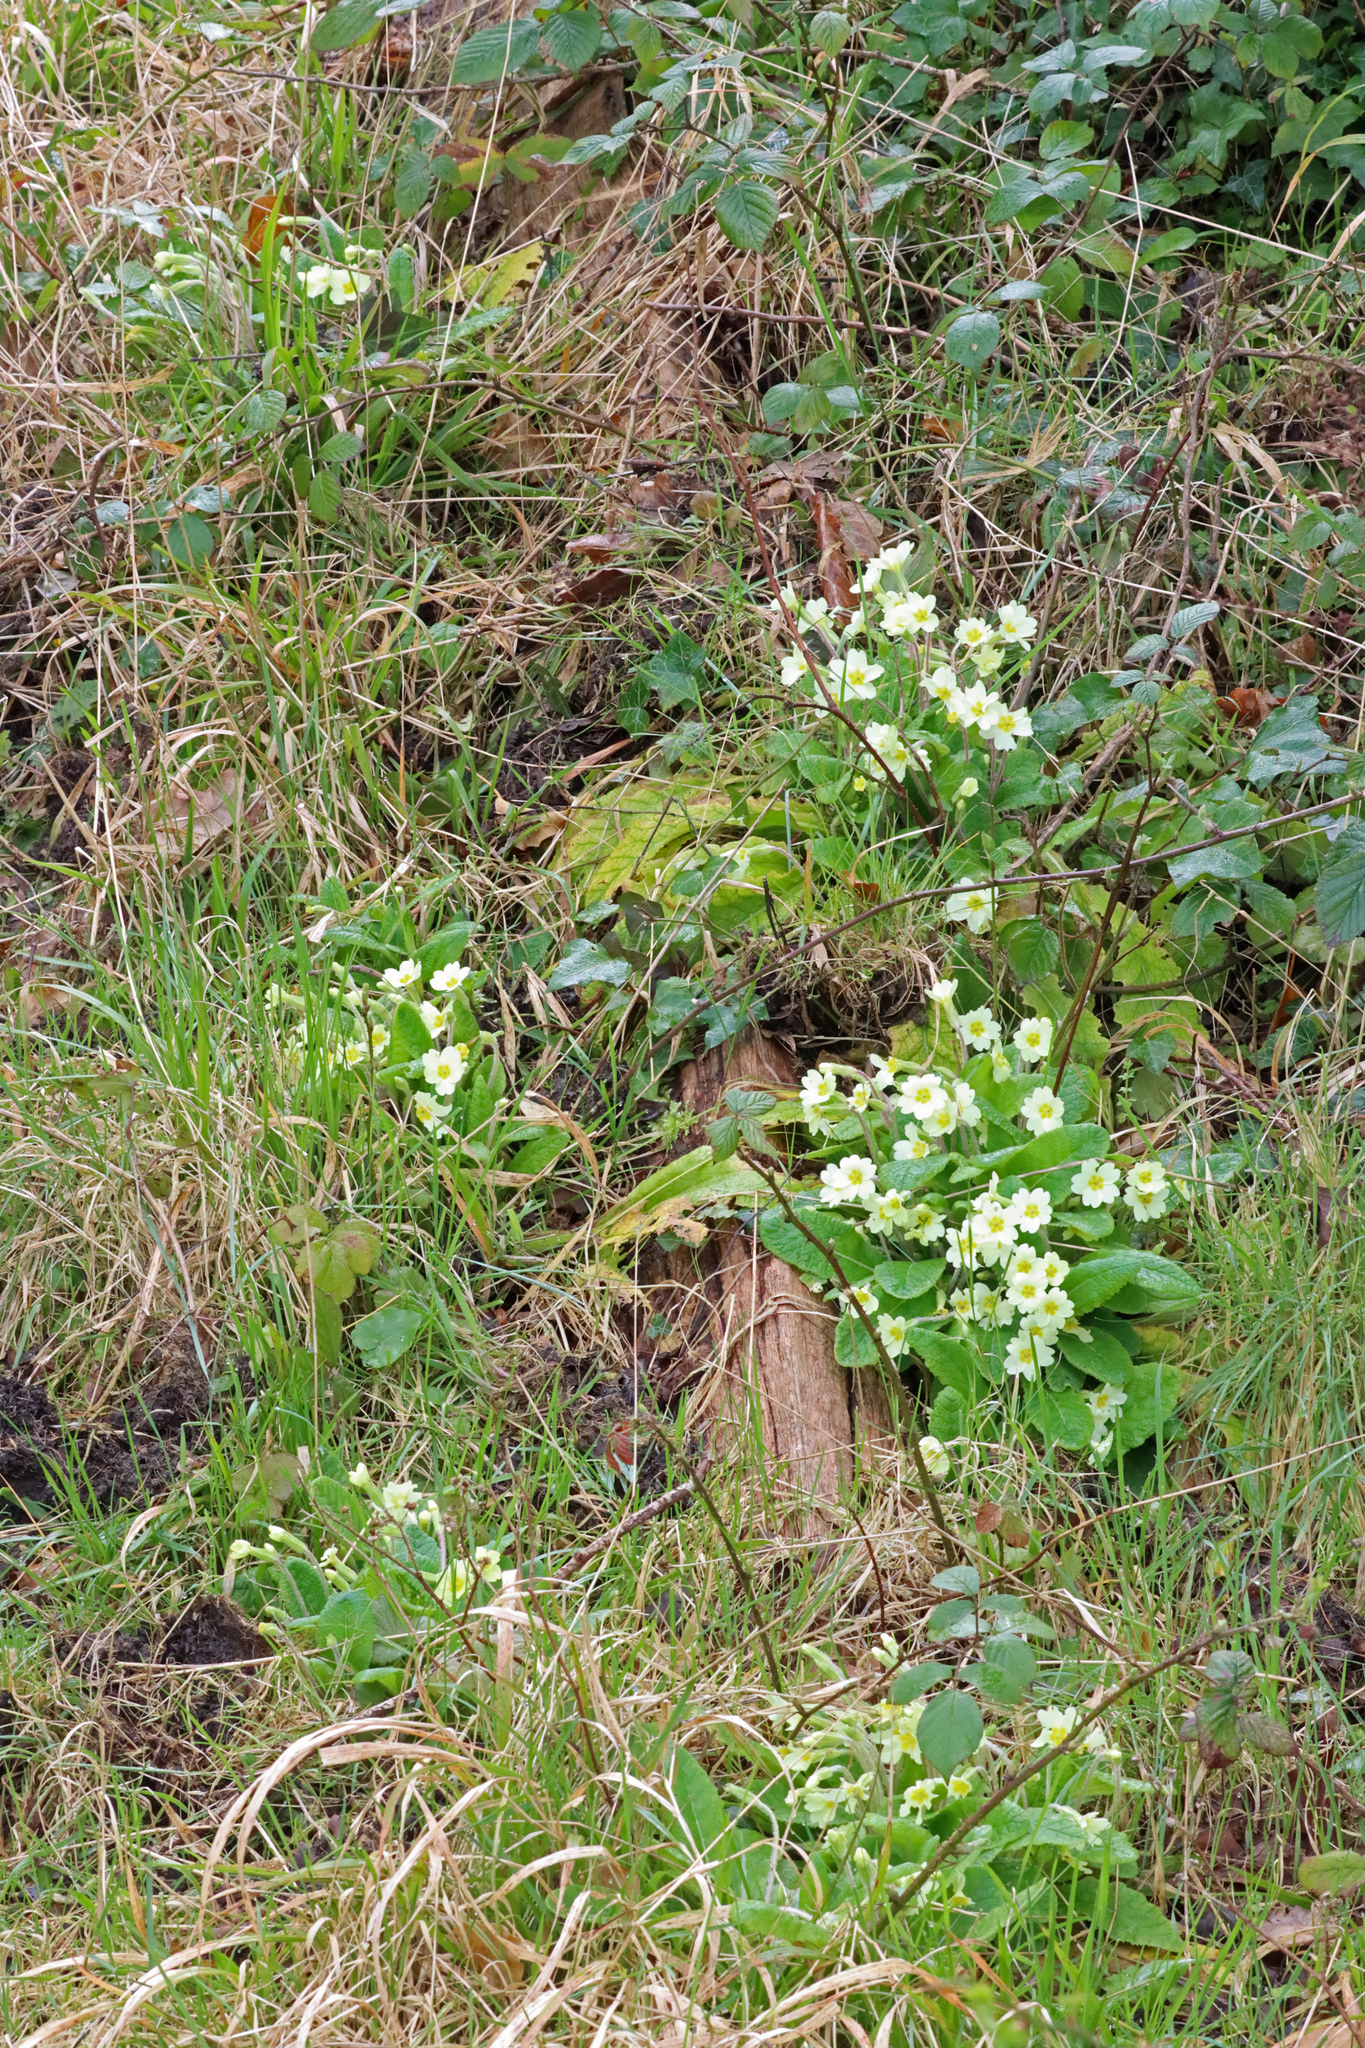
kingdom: Plantae
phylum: Tracheophyta
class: Magnoliopsida
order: Ericales
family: Primulaceae
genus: Primula
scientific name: Primula vulgaris
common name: Primrose
